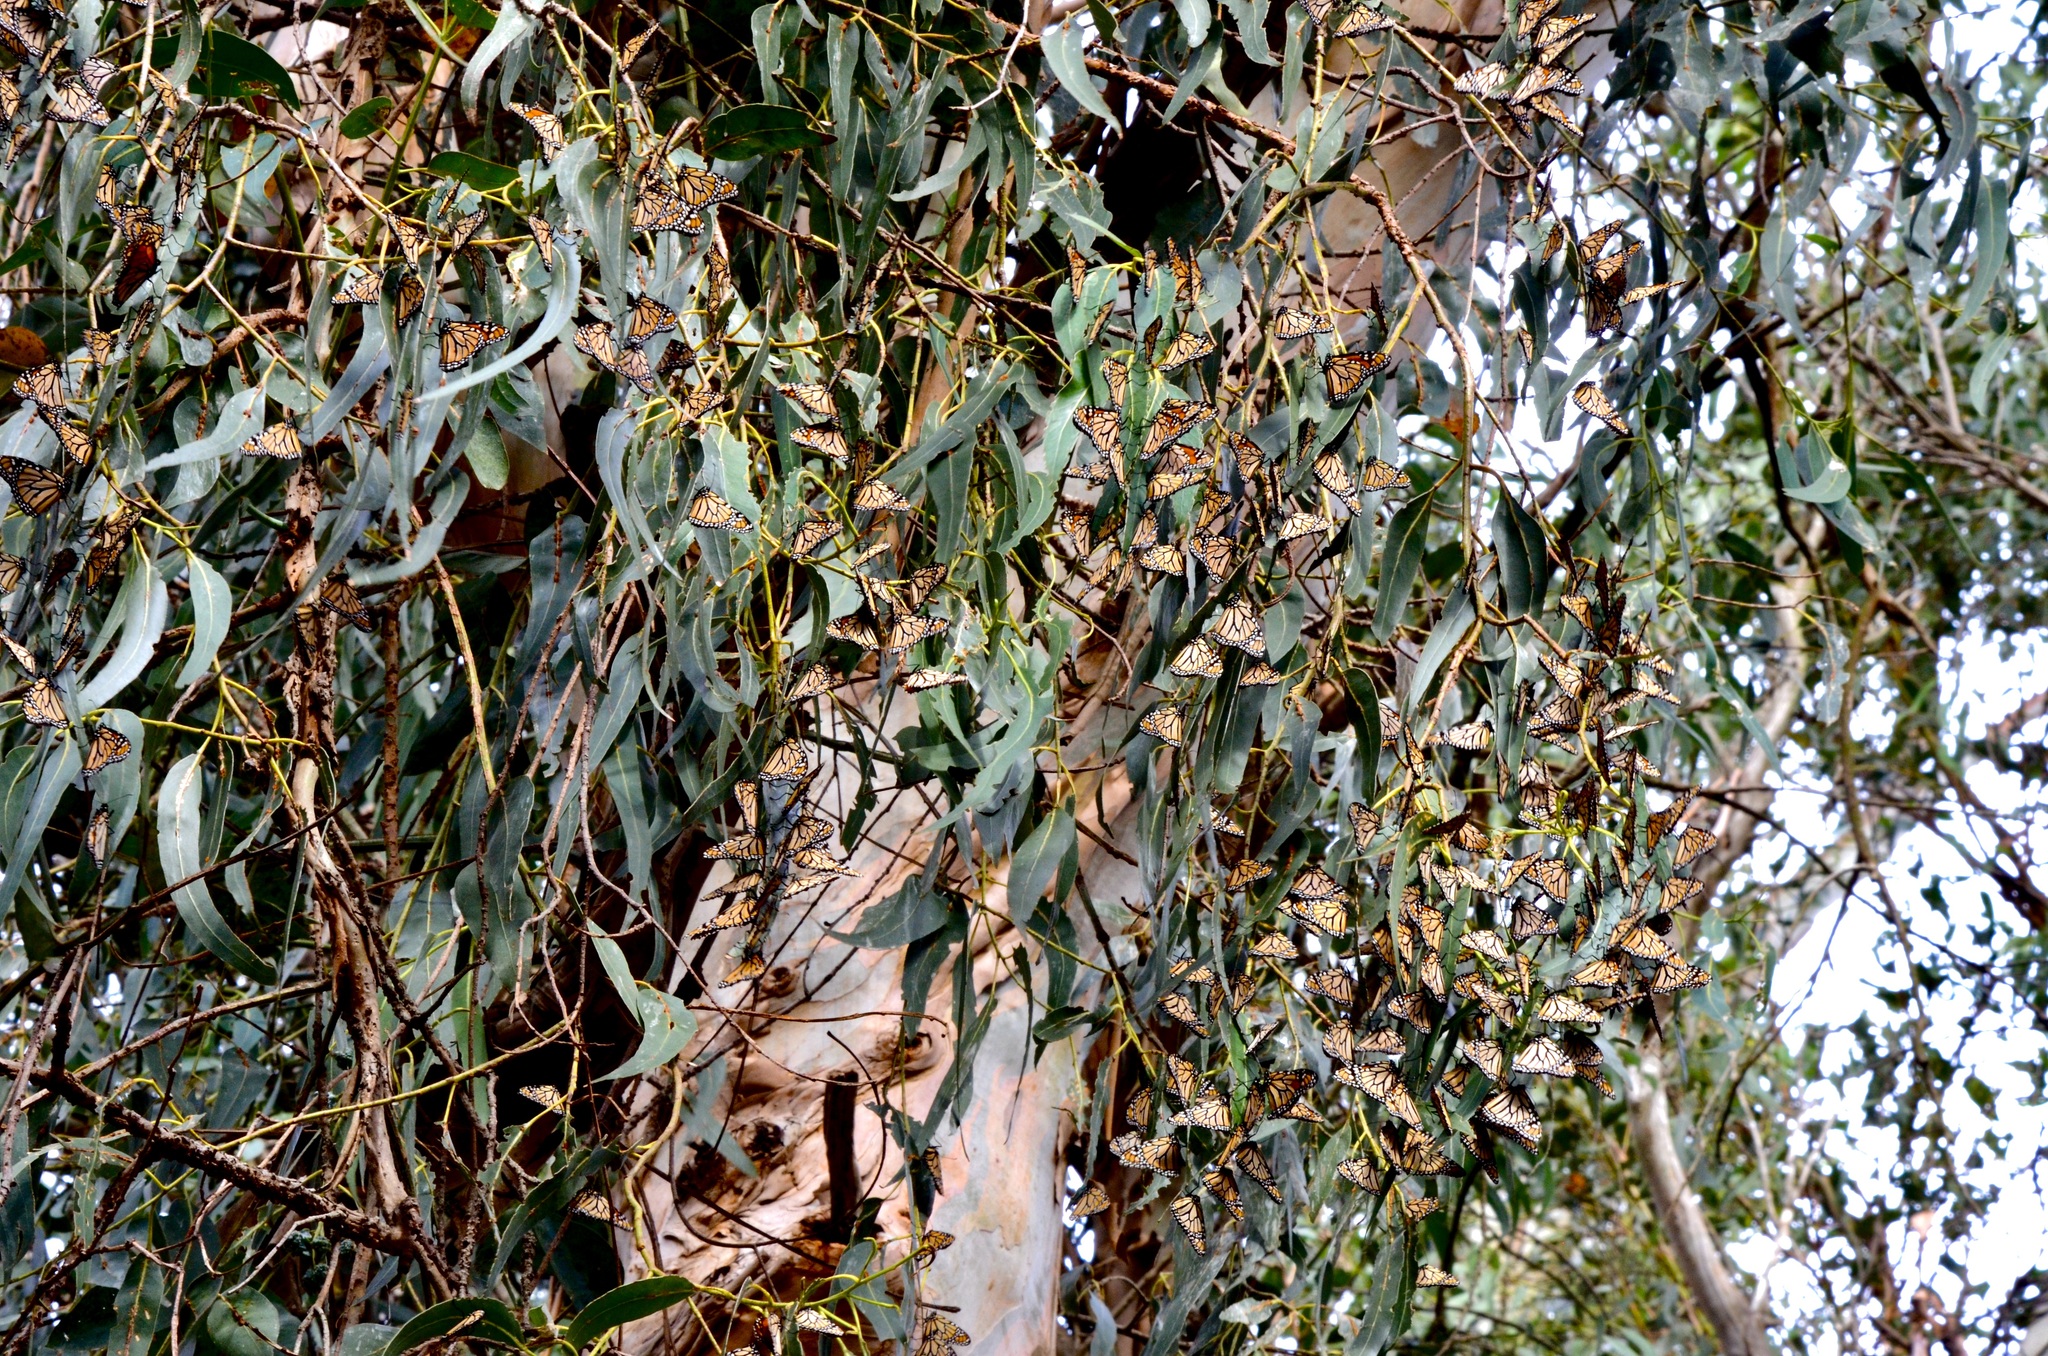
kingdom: Animalia
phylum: Arthropoda
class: Insecta
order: Lepidoptera
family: Nymphalidae
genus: Danaus
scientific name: Danaus plexippus
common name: Monarch
